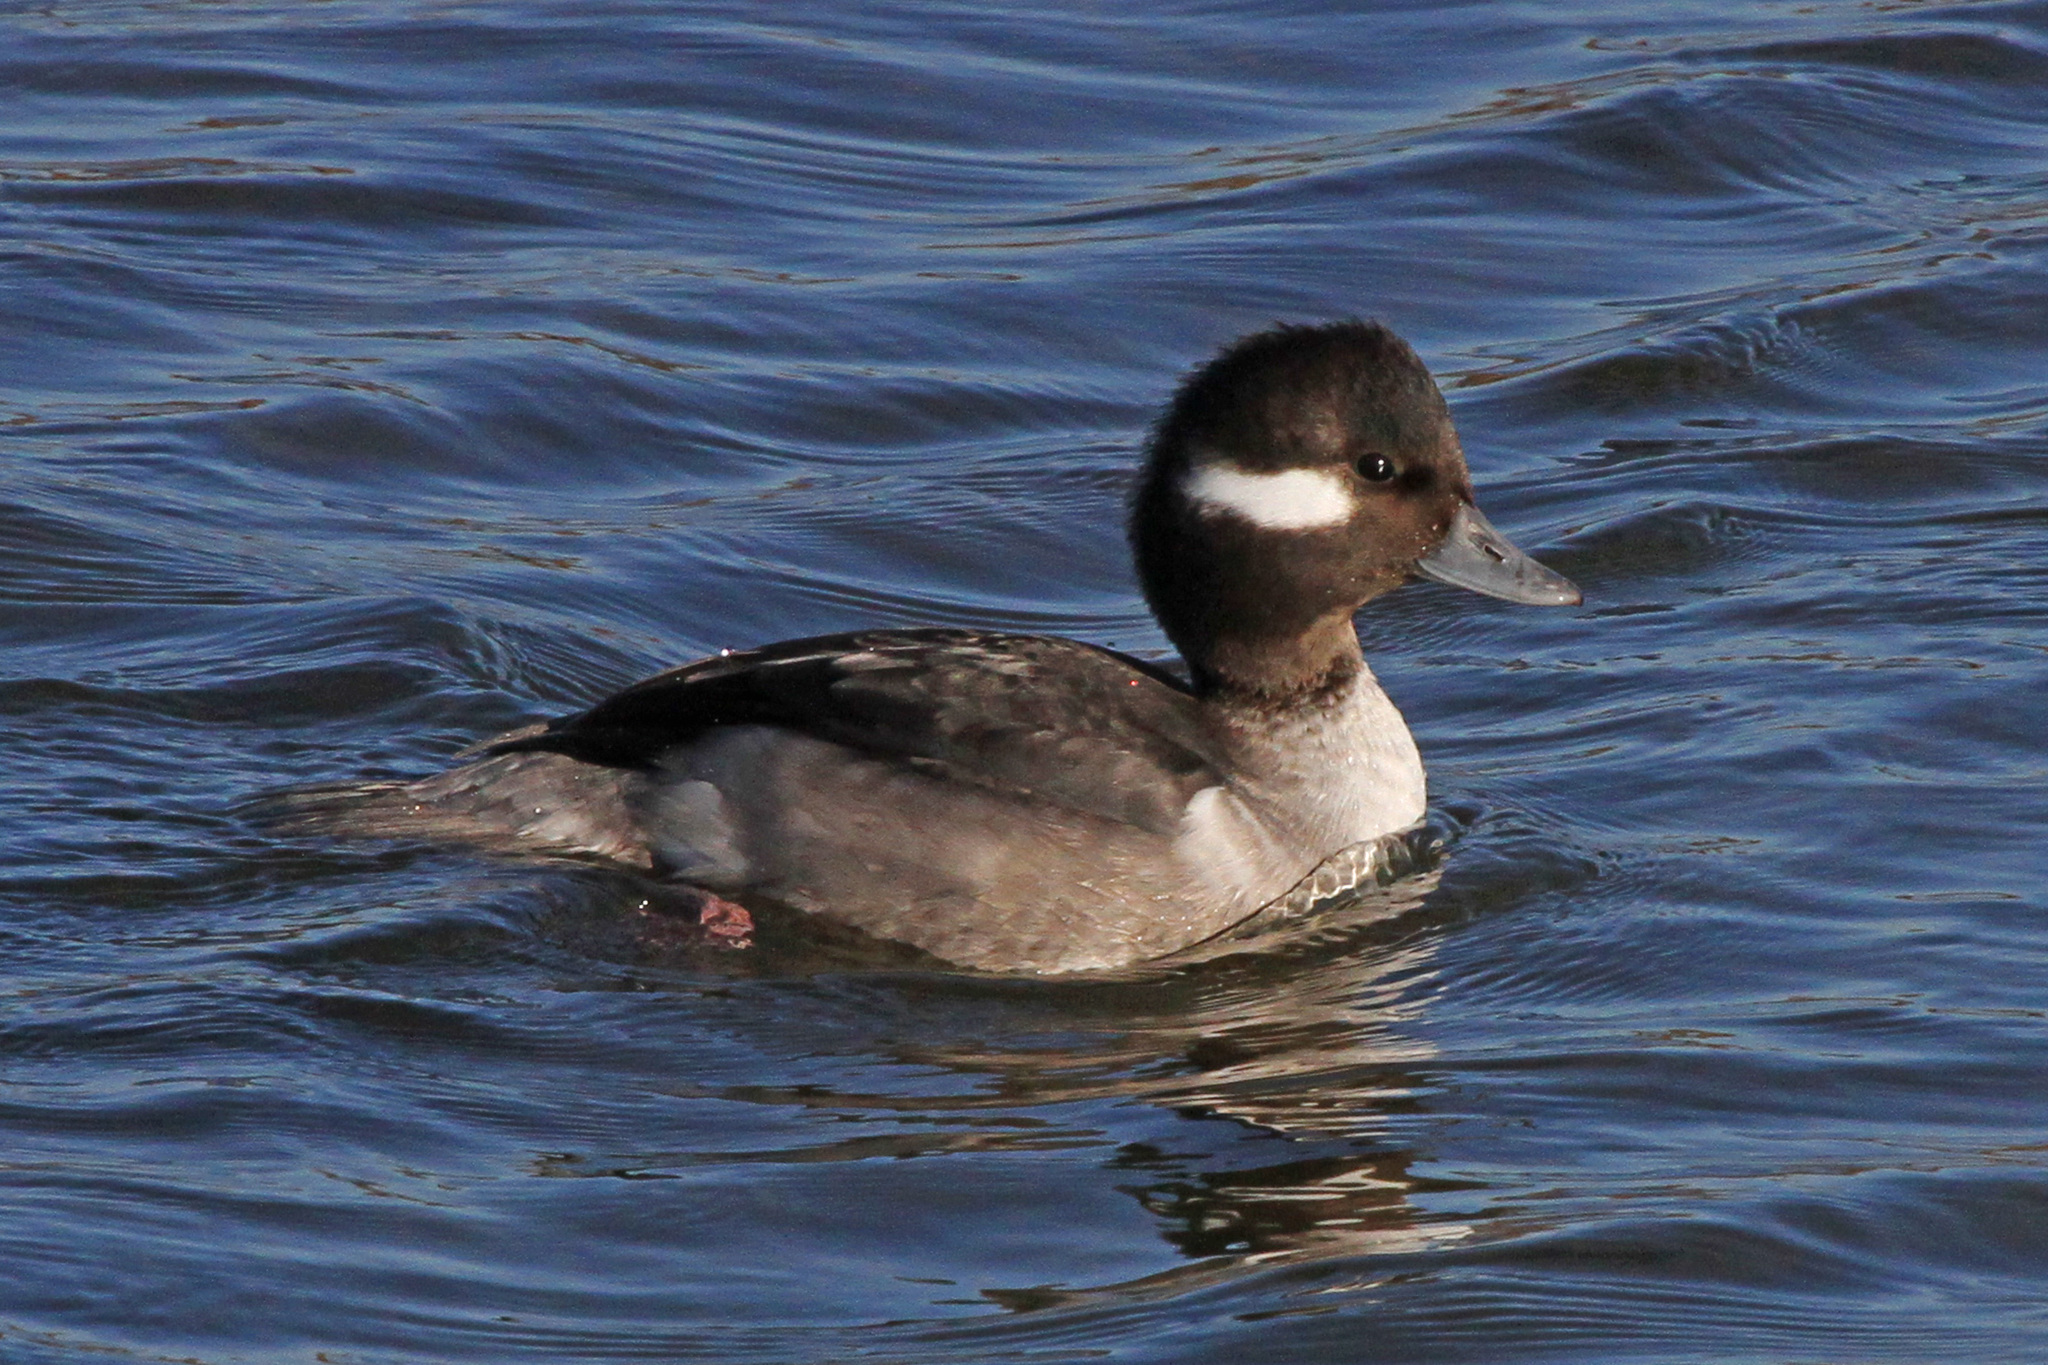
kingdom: Animalia
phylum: Chordata
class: Aves
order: Anseriformes
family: Anatidae
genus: Bucephala
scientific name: Bucephala albeola
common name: Bufflehead
